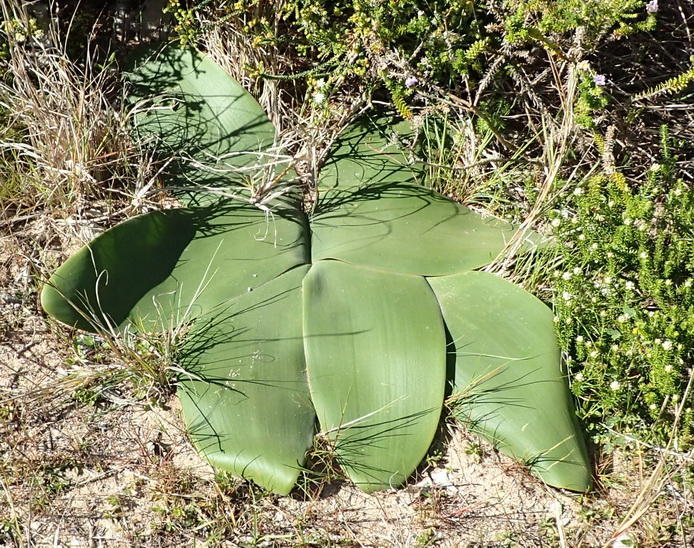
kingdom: Plantae
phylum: Tracheophyta
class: Liliopsida
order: Asparagales
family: Amaryllidaceae
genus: Brunsvigia
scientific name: Brunsvigia orientalis
